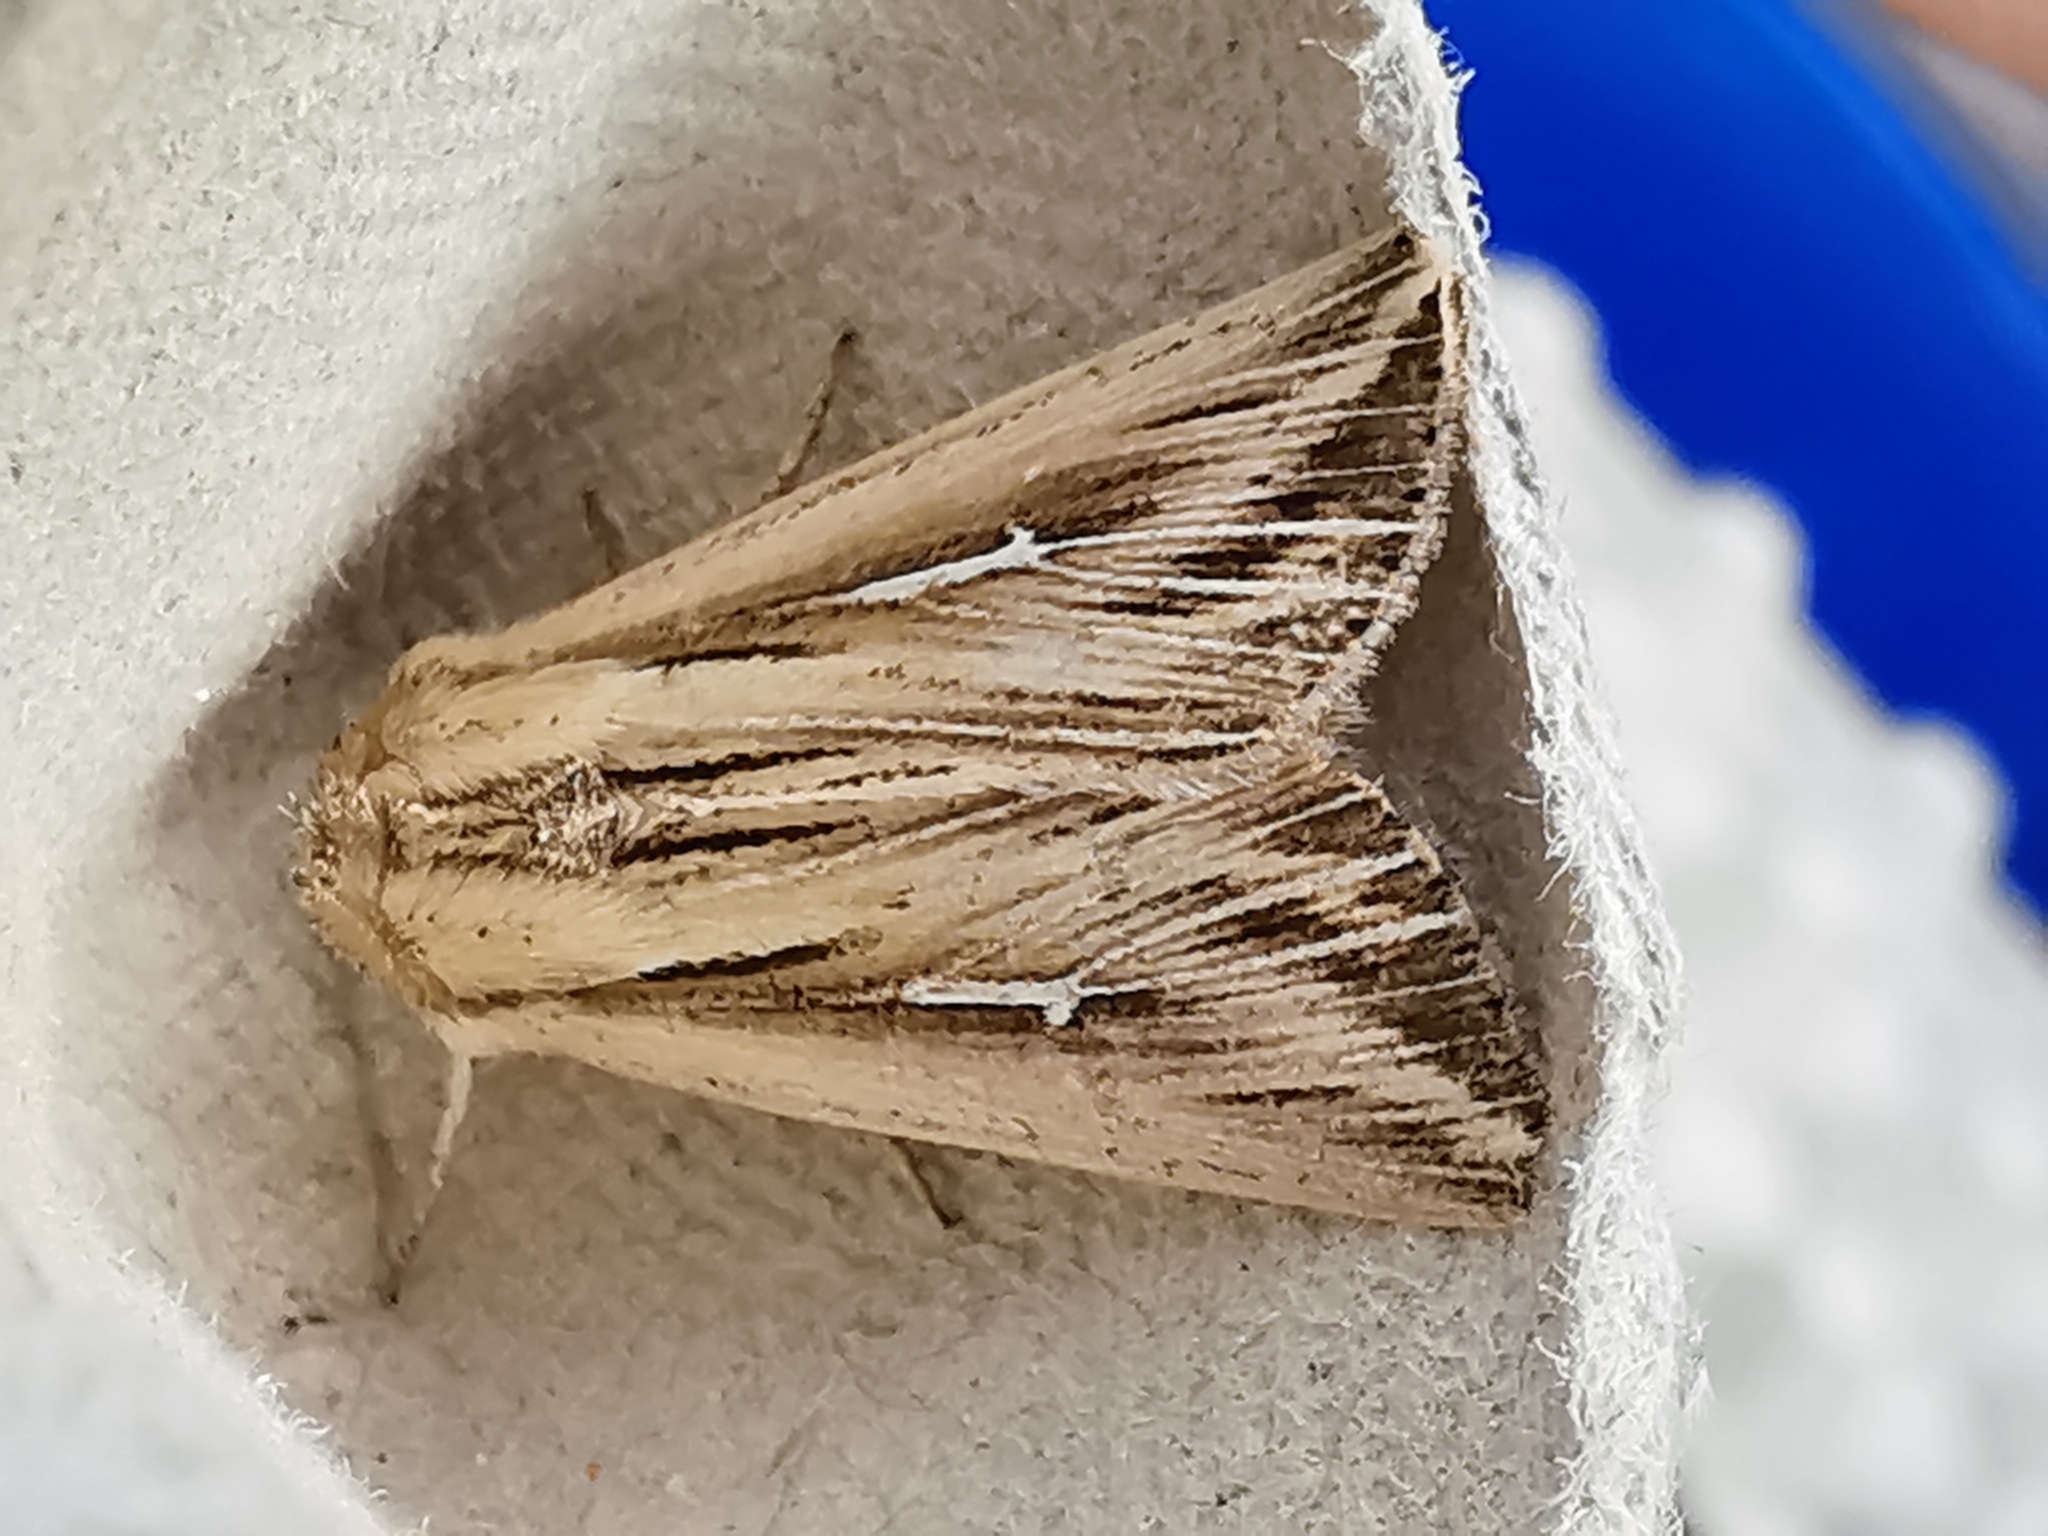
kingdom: Animalia
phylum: Arthropoda
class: Insecta
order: Lepidoptera
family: Noctuidae
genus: Mythimna
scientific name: Mythimna l-album
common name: L-album wainscot
